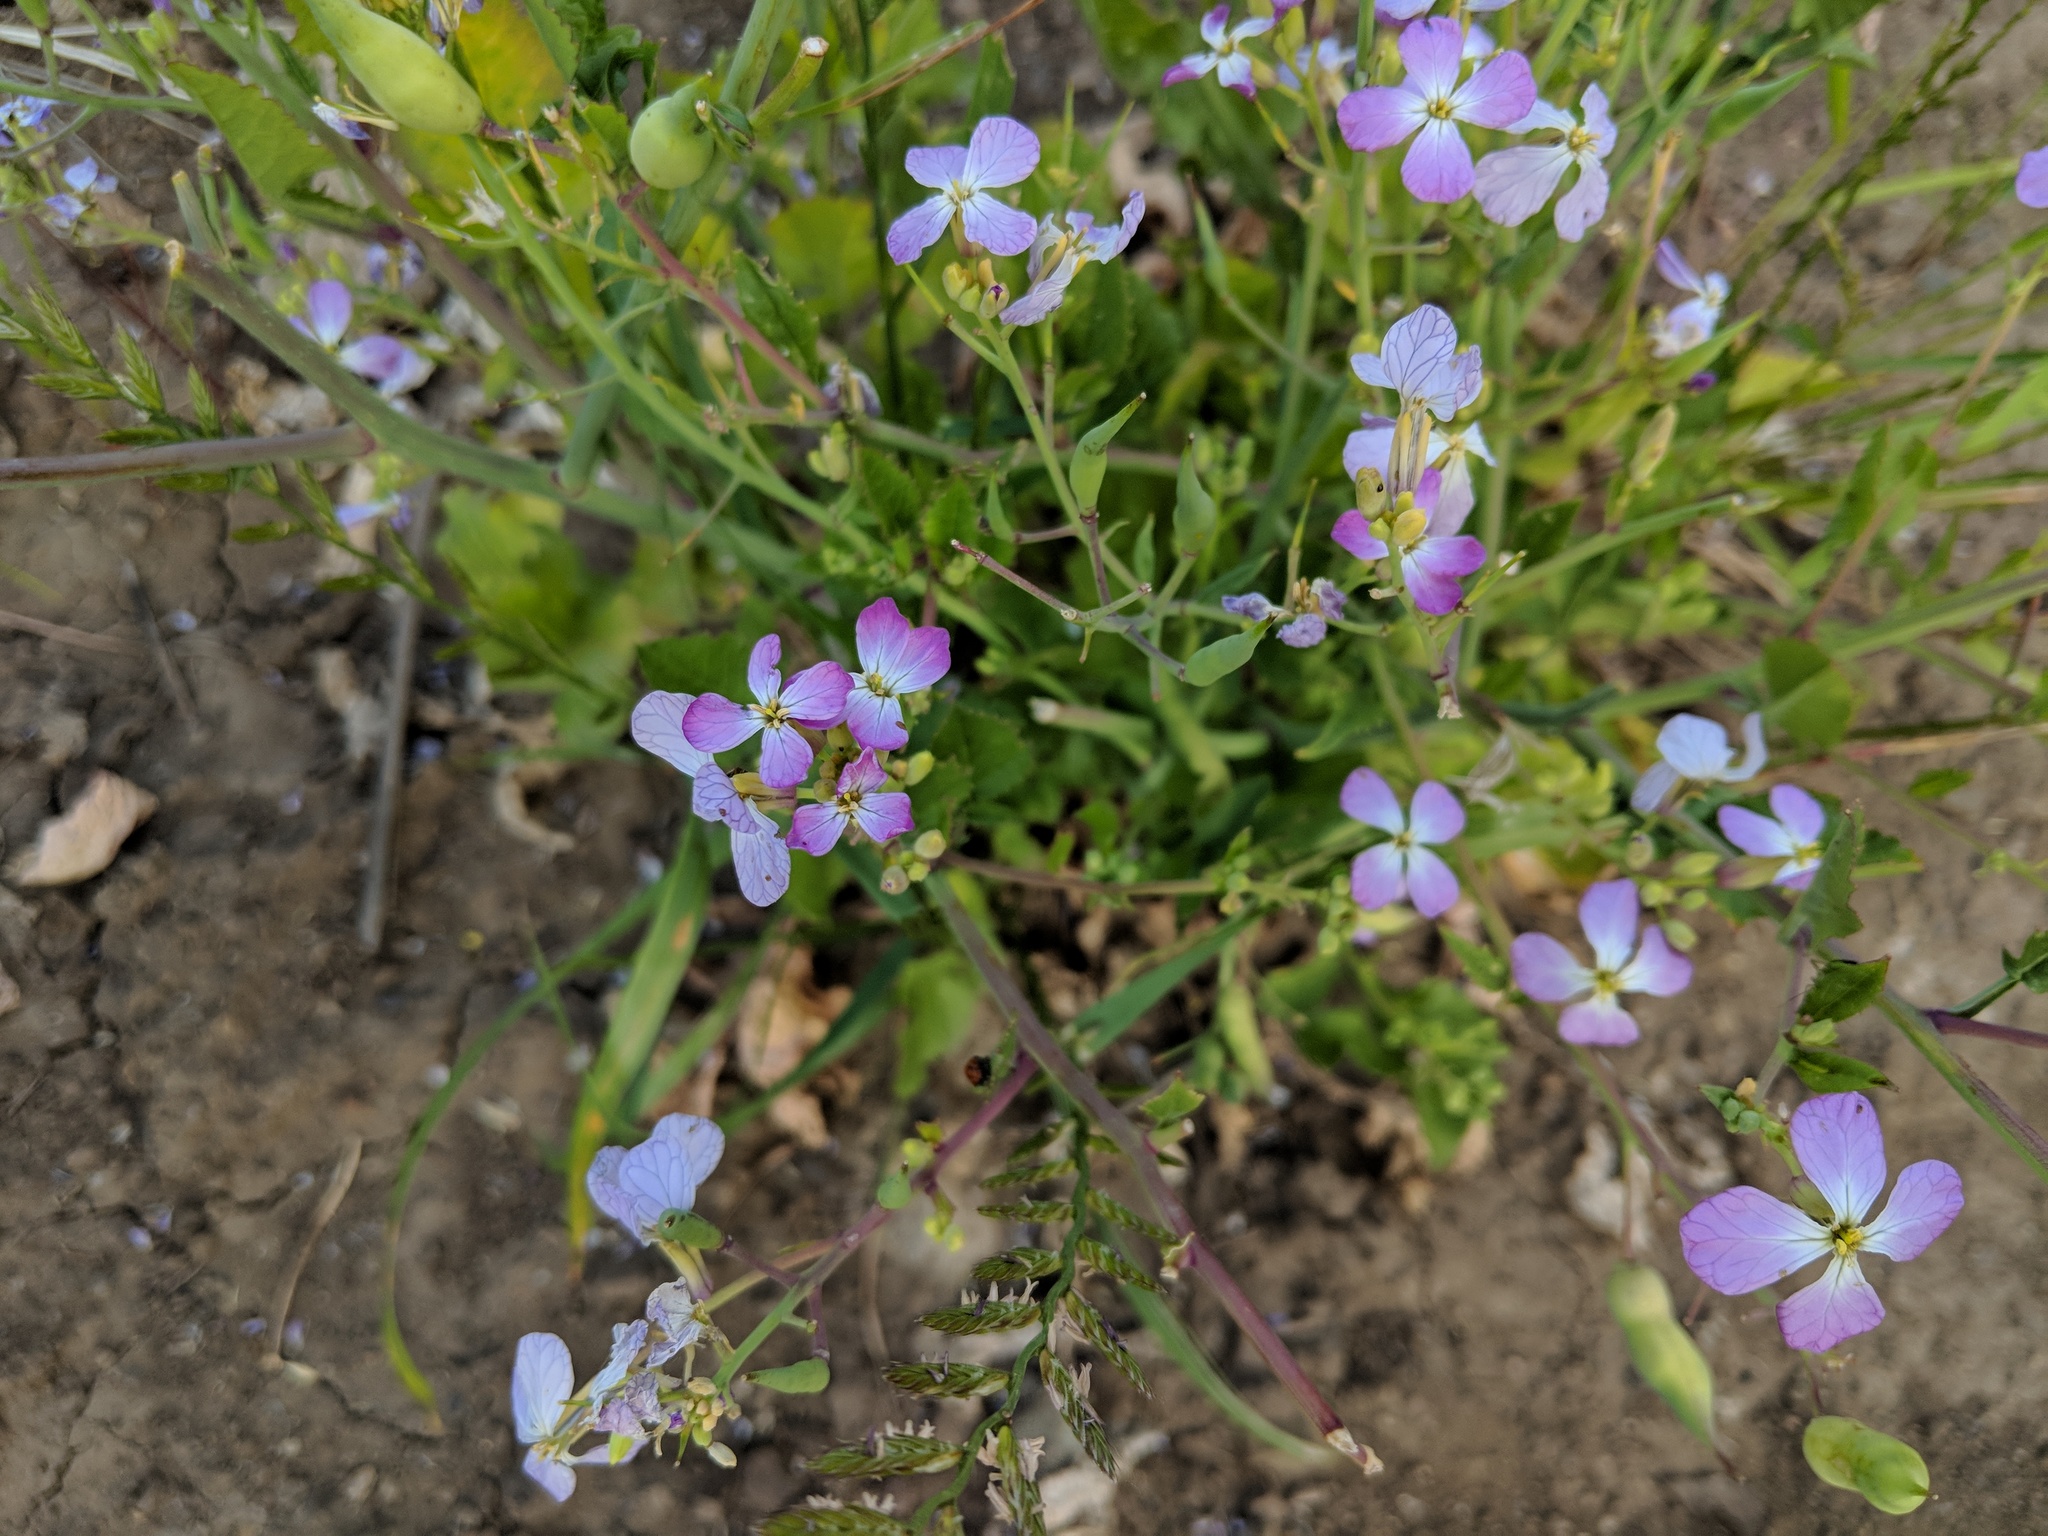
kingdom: Plantae
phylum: Tracheophyta
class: Magnoliopsida
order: Brassicales
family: Brassicaceae
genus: Raphanus
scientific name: Raphanus sativus
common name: Cultivated radish
